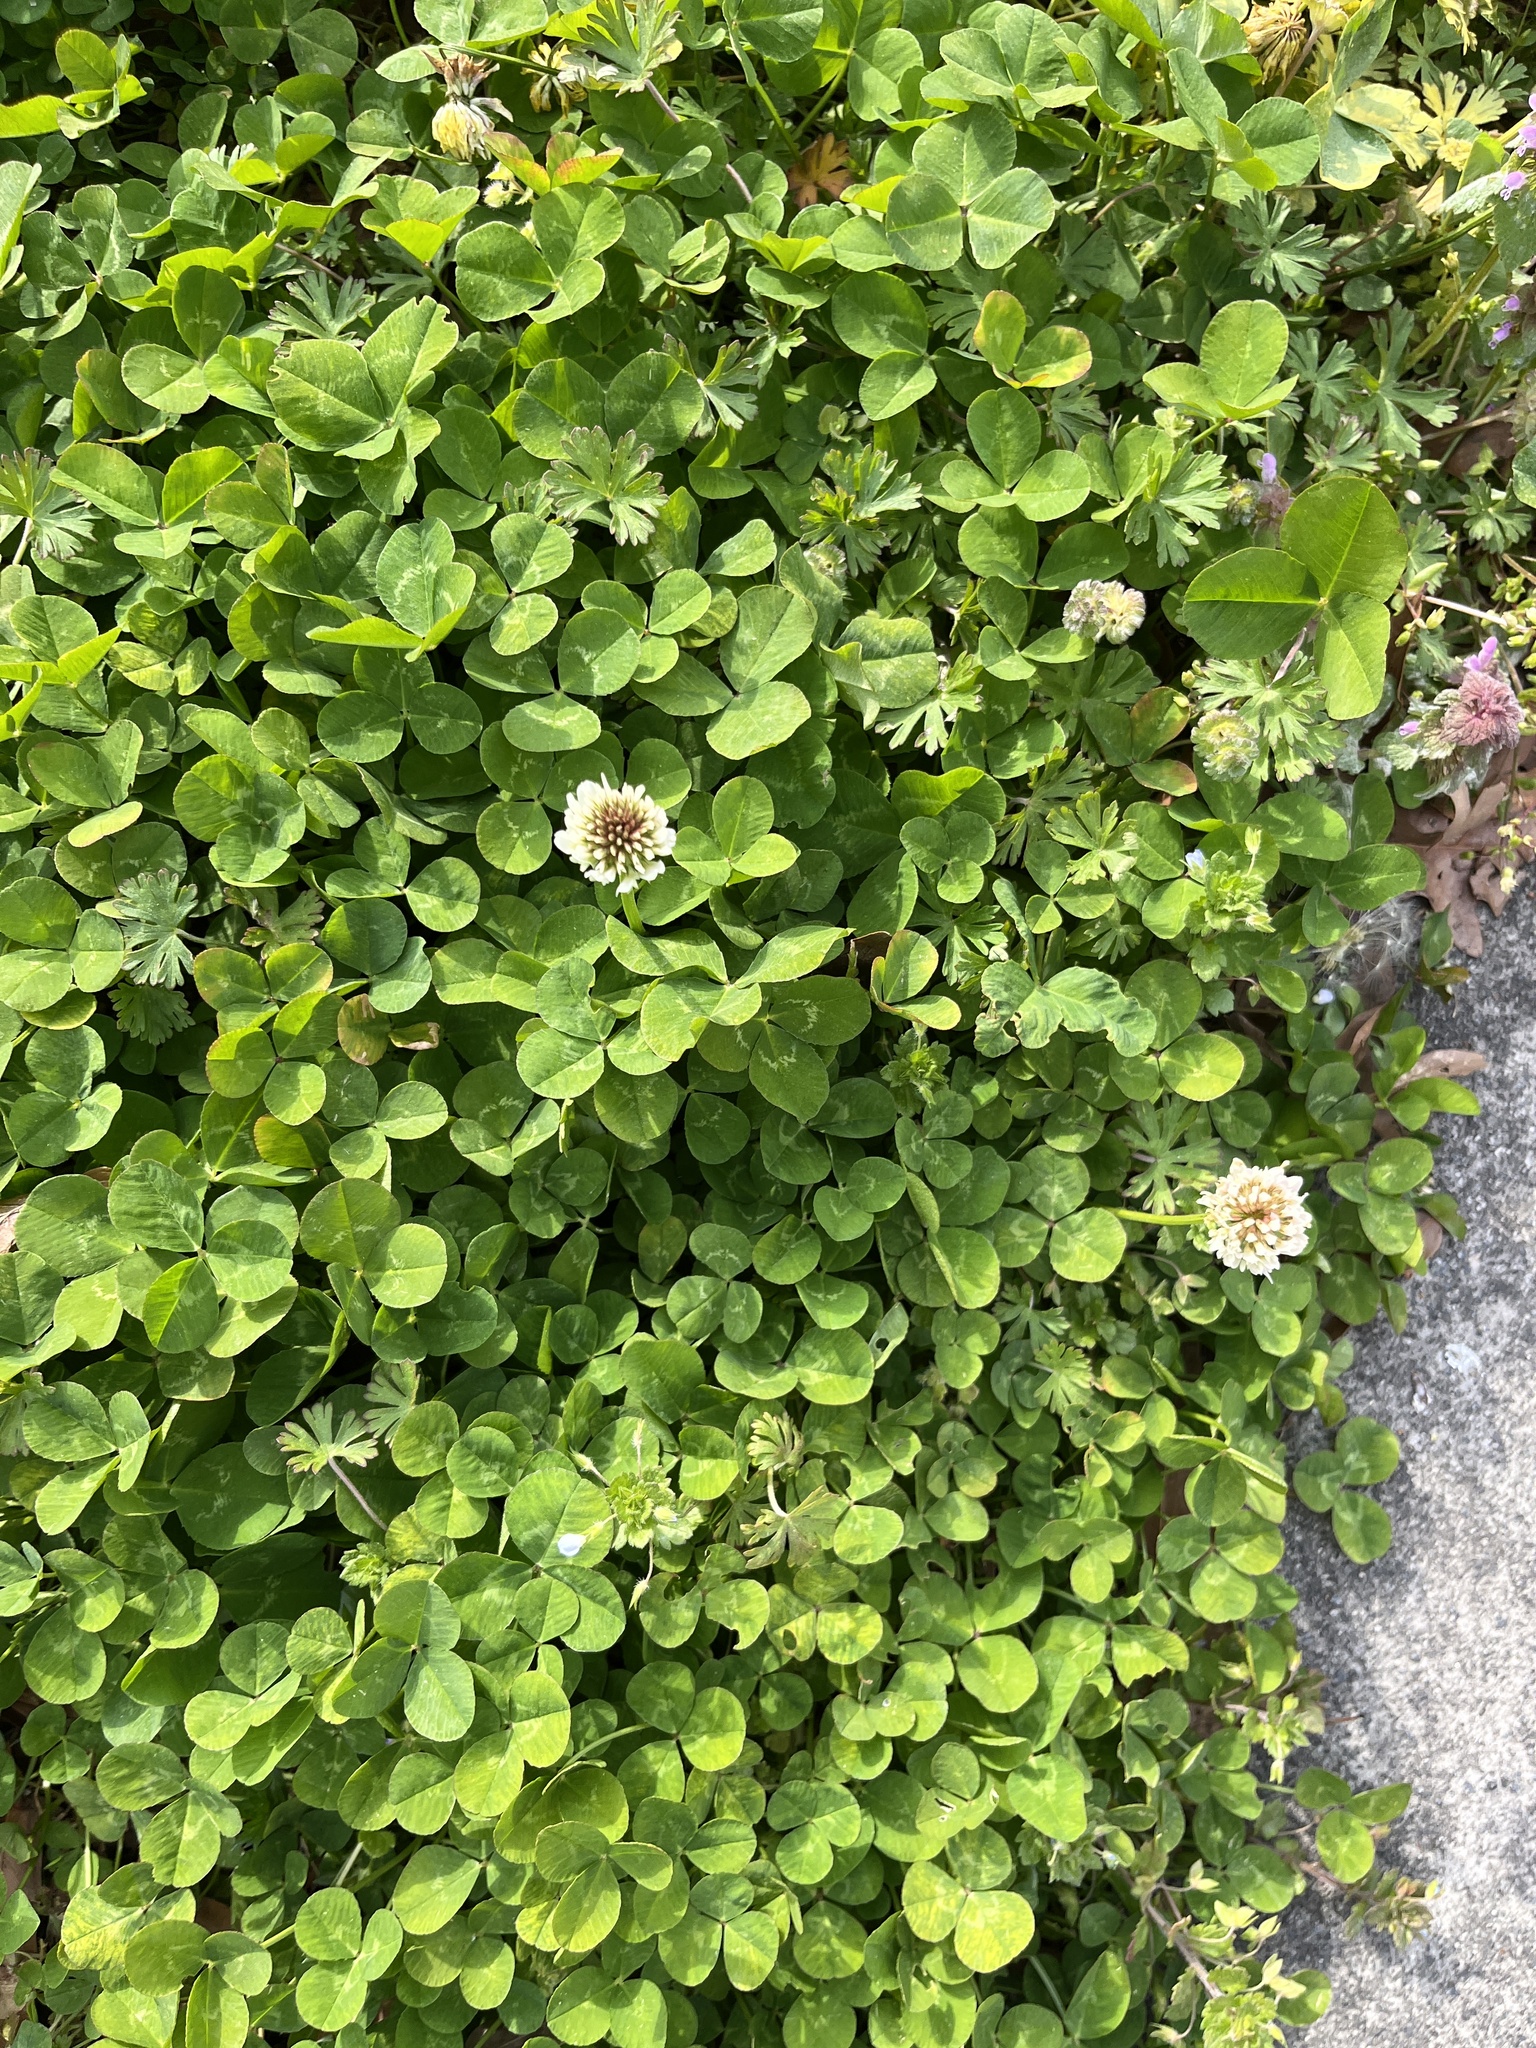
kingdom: Plantae
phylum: Tracheophyta
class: Magnoliopsida
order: Fabales
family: Fabaceae
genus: Trifolium
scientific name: Trifolium repens
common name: White clover
